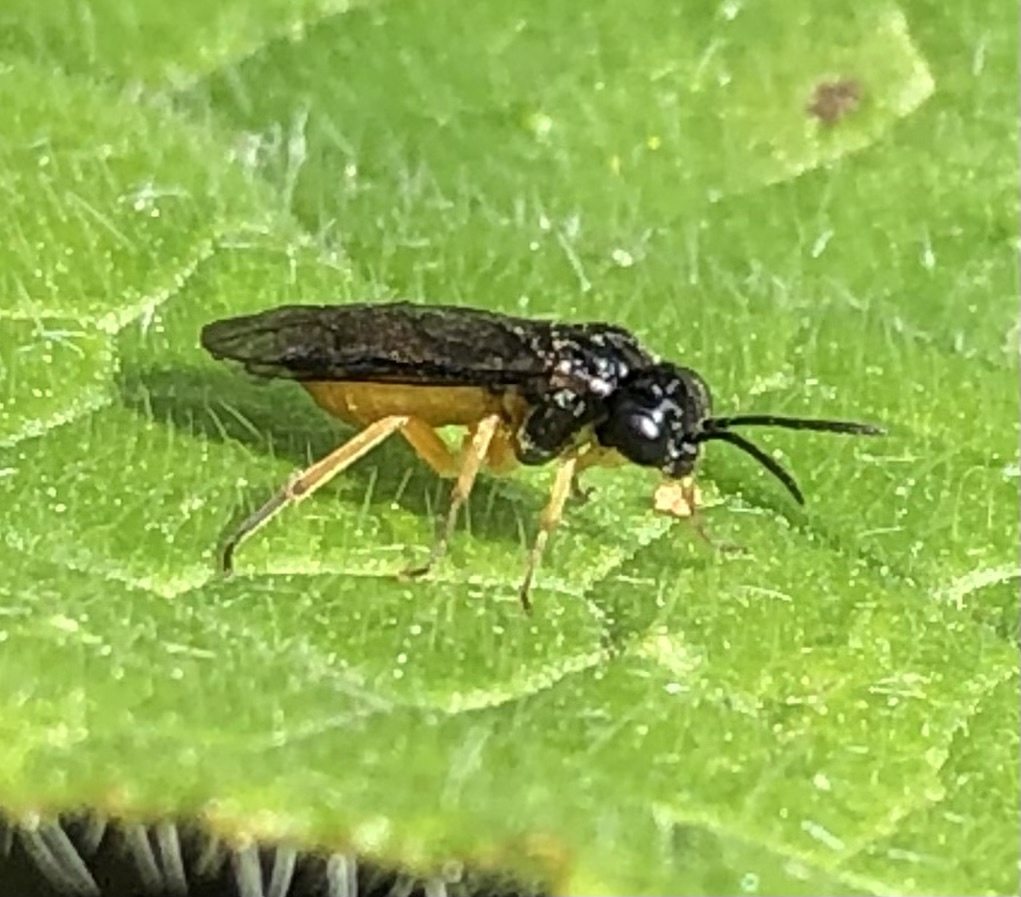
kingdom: Animalia
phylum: Arthropoda
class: Insecta
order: Hymenoptera
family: Tenthredinidae
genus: Halidamia
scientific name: Halidamia affinis
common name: Wasp
